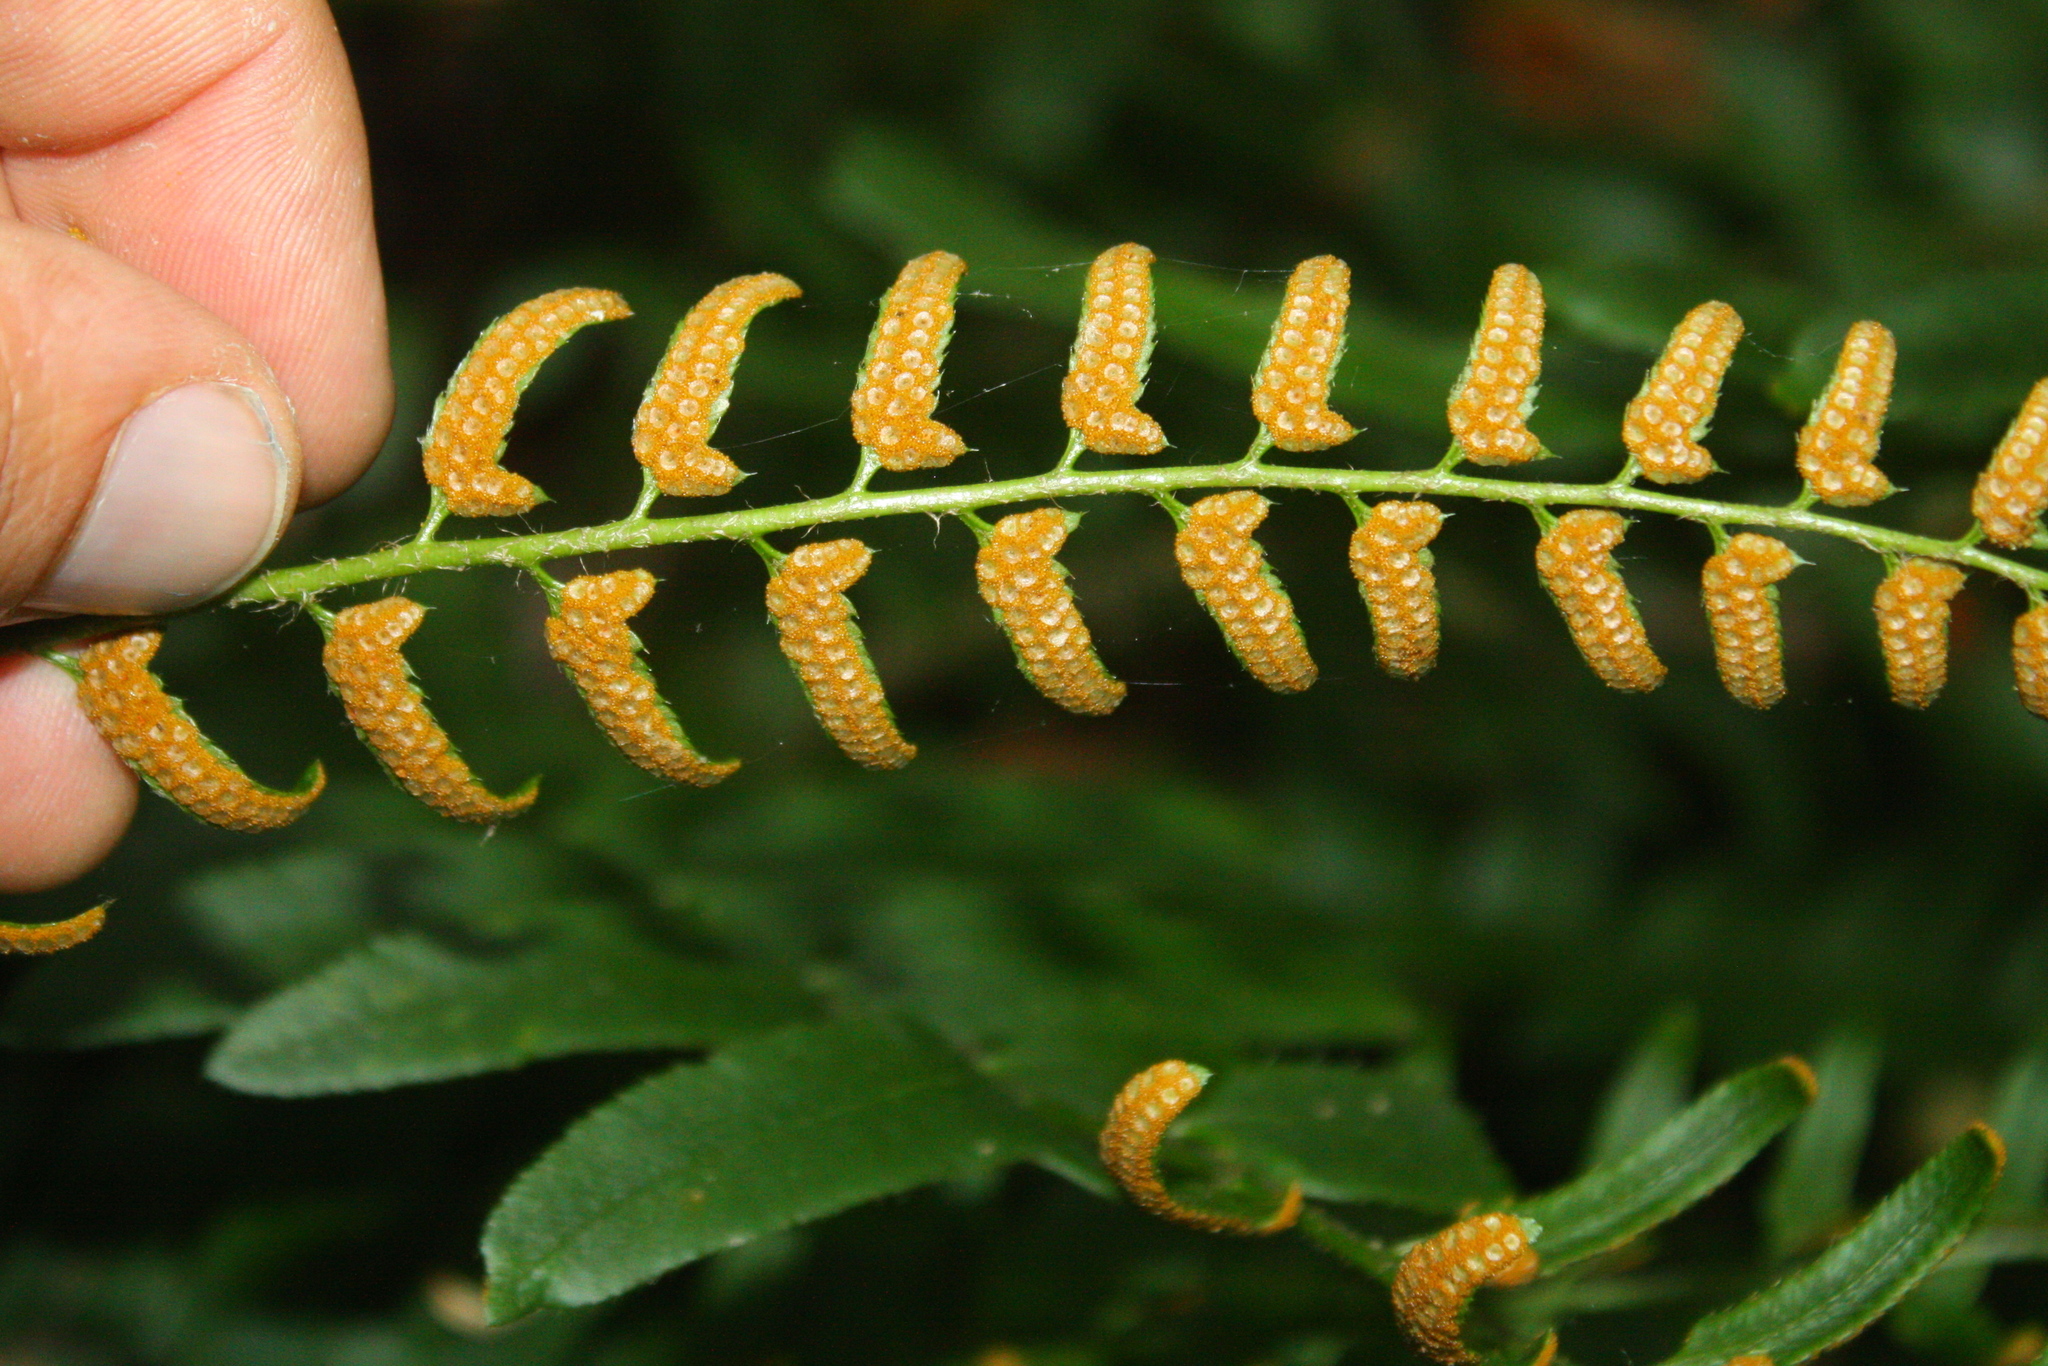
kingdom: Plantae
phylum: Tracheophyta
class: Polypodiopsida
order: Polypodiales
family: Dryopteridaceae
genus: Polystichum
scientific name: Polystichum acrostichoides
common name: Christmas fern
